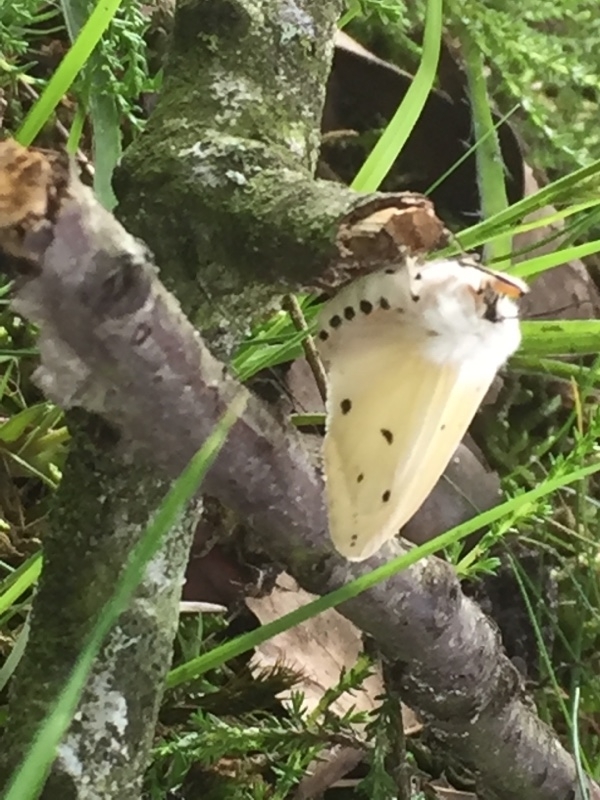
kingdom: Animalia
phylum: Arthropoda
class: Insecta
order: Lepidoptera
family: Erebidae
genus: Spilarctia
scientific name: Spilarctia lutea
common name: Buff ermine
